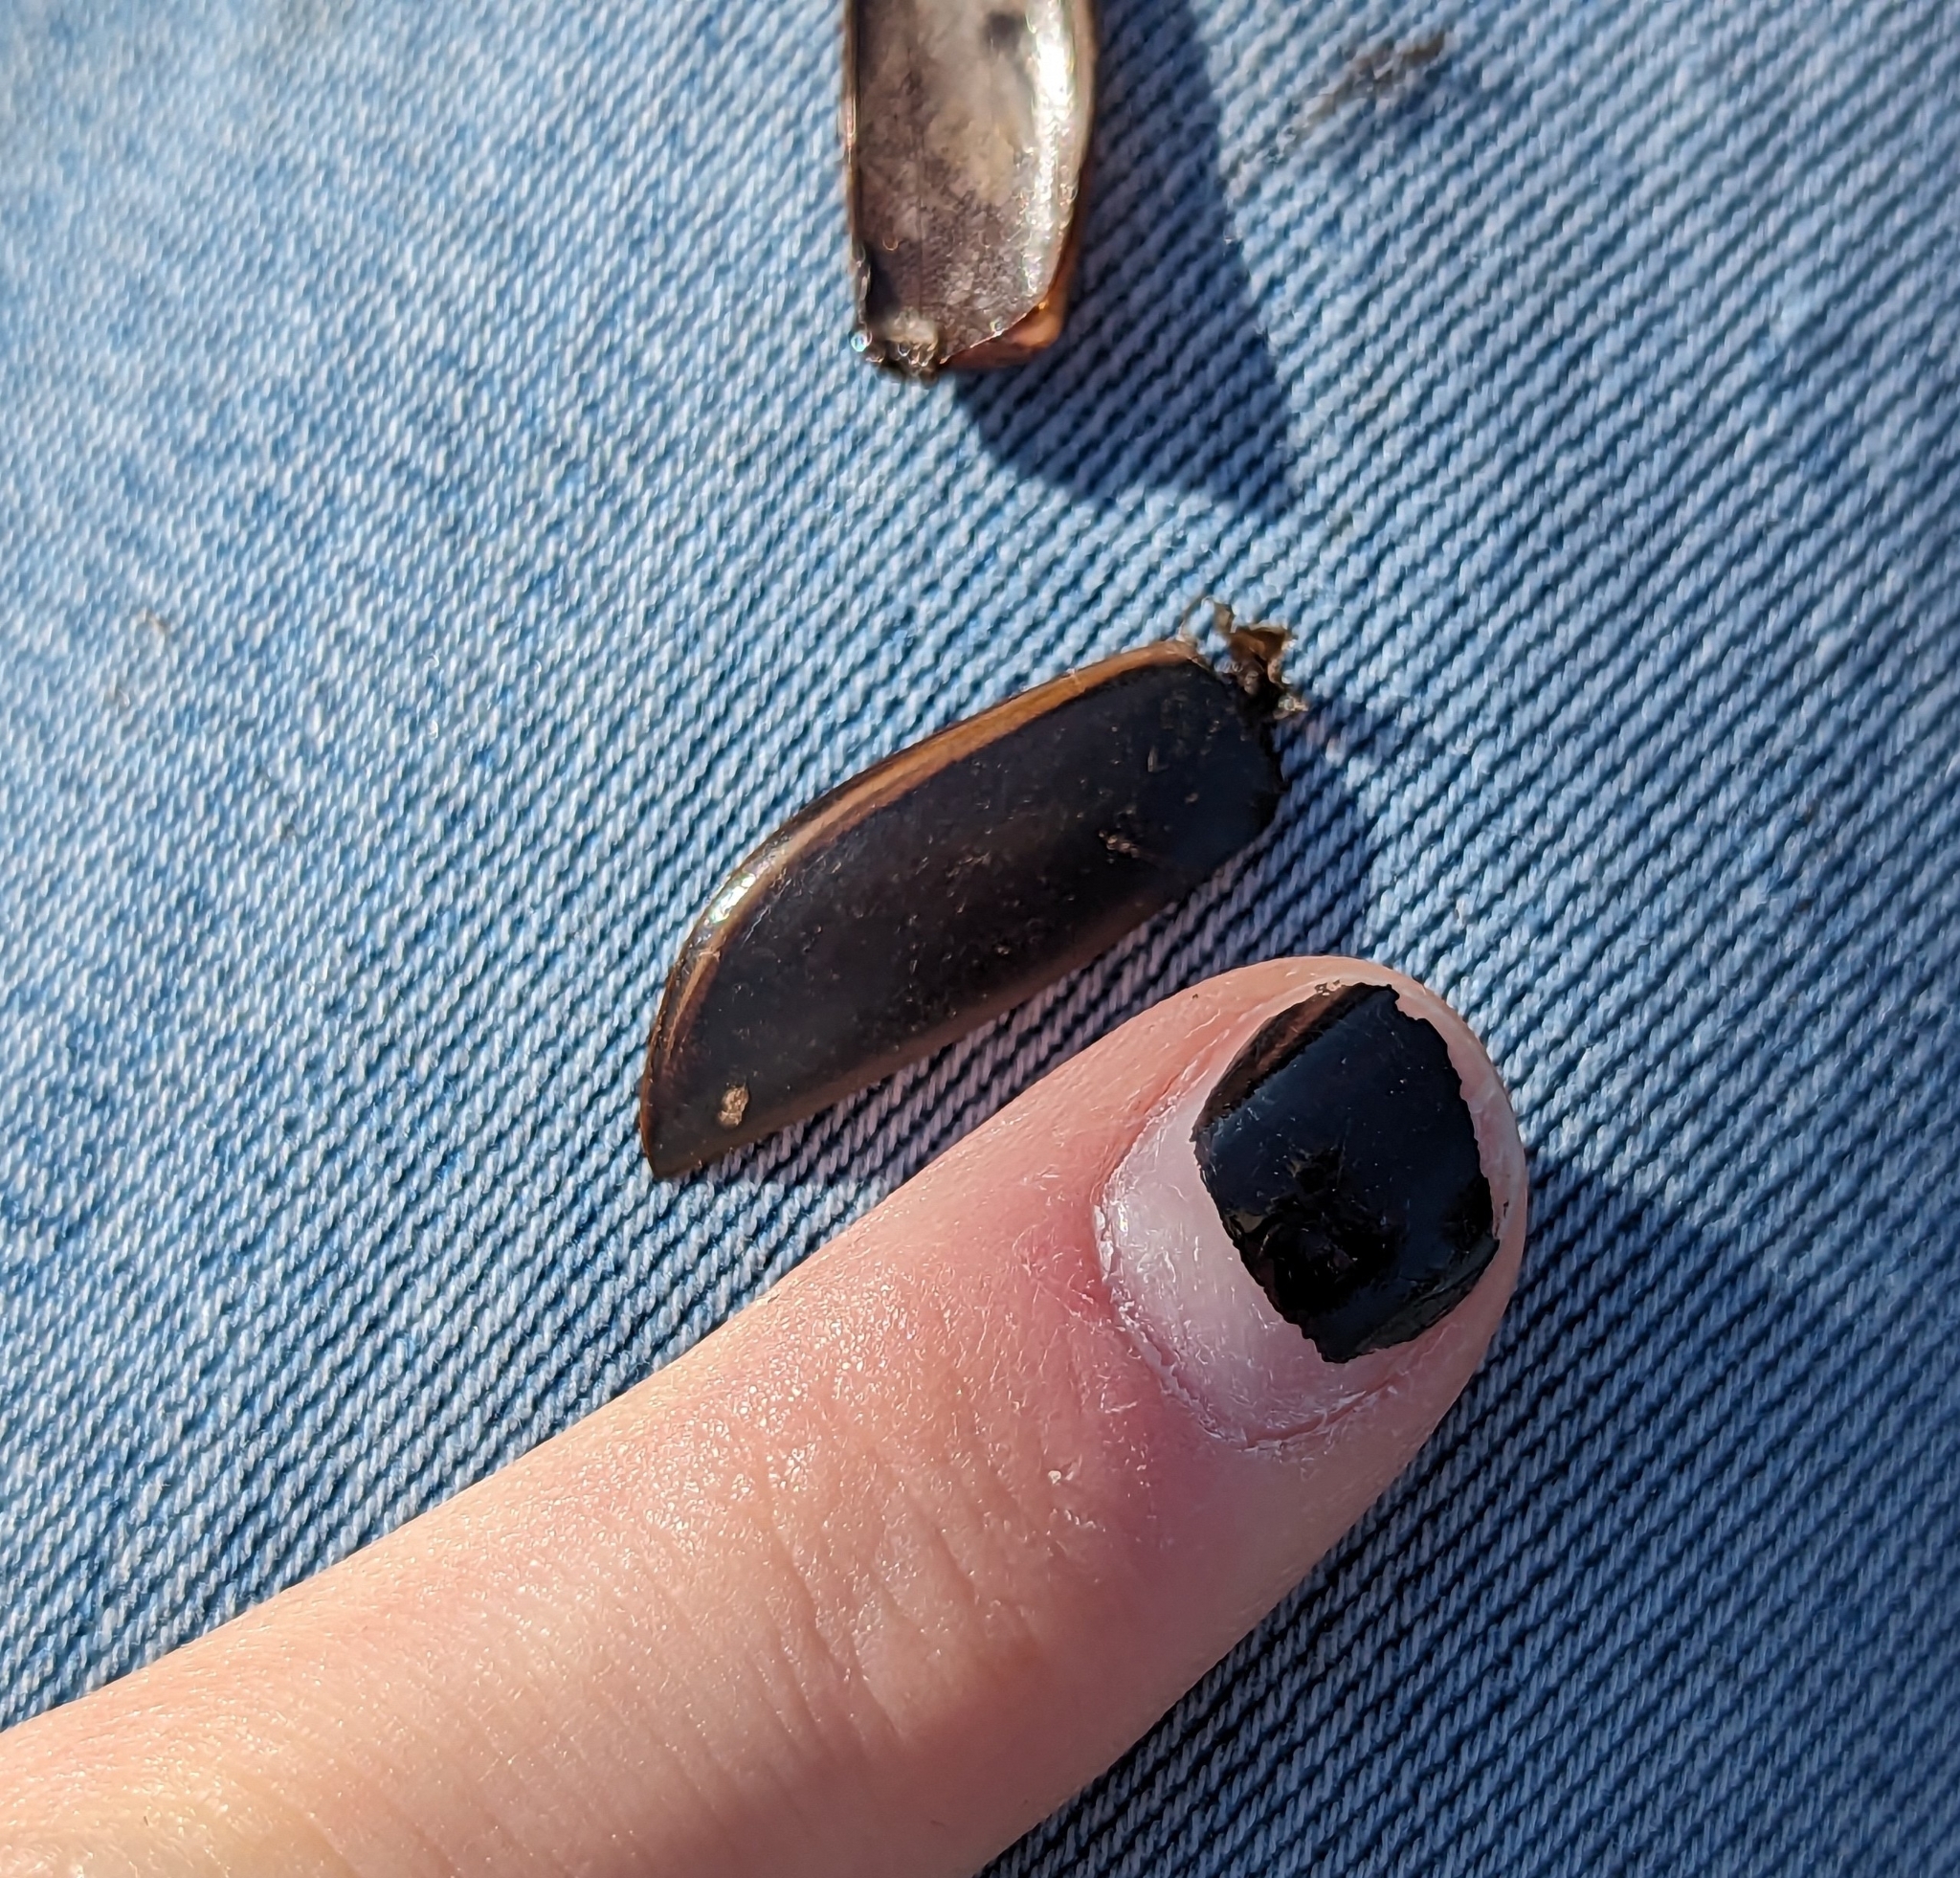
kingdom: Animalia
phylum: Arthropoda
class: Insecta
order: Coleoptera
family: Dytiscidae
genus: Cybister
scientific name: Cybister fimbriolatus
